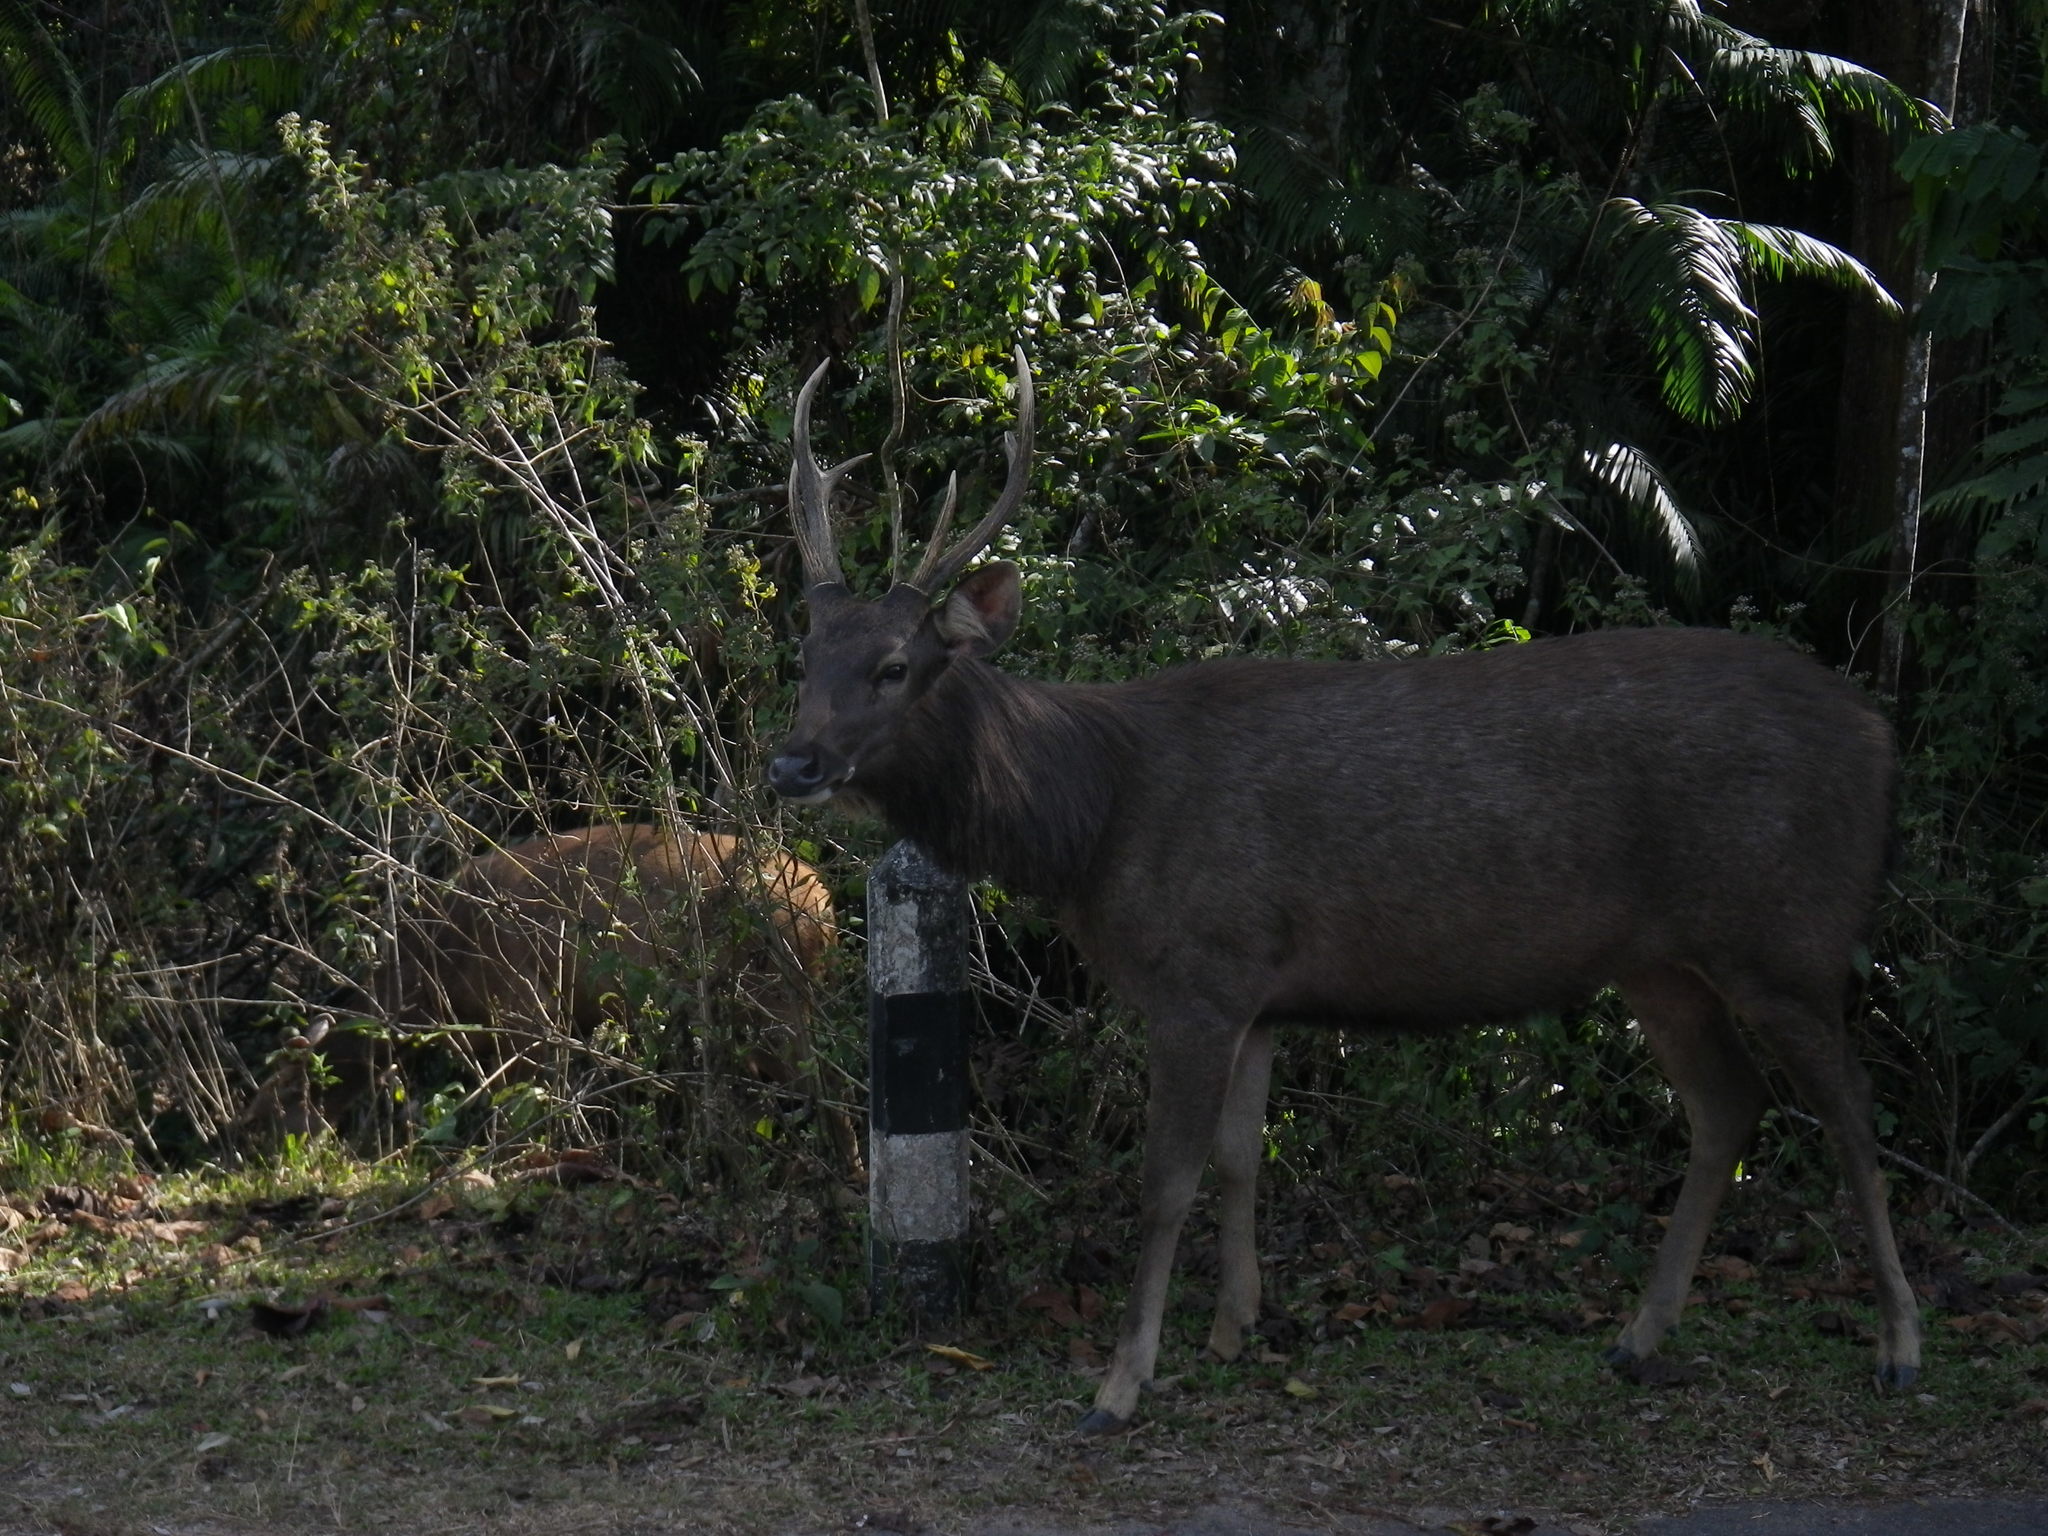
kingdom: Animalia
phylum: Chordata
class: Mammalia
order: Artiodactyla
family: Cervidae
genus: Rusa
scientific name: Rusa unicolor
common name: Sambar
